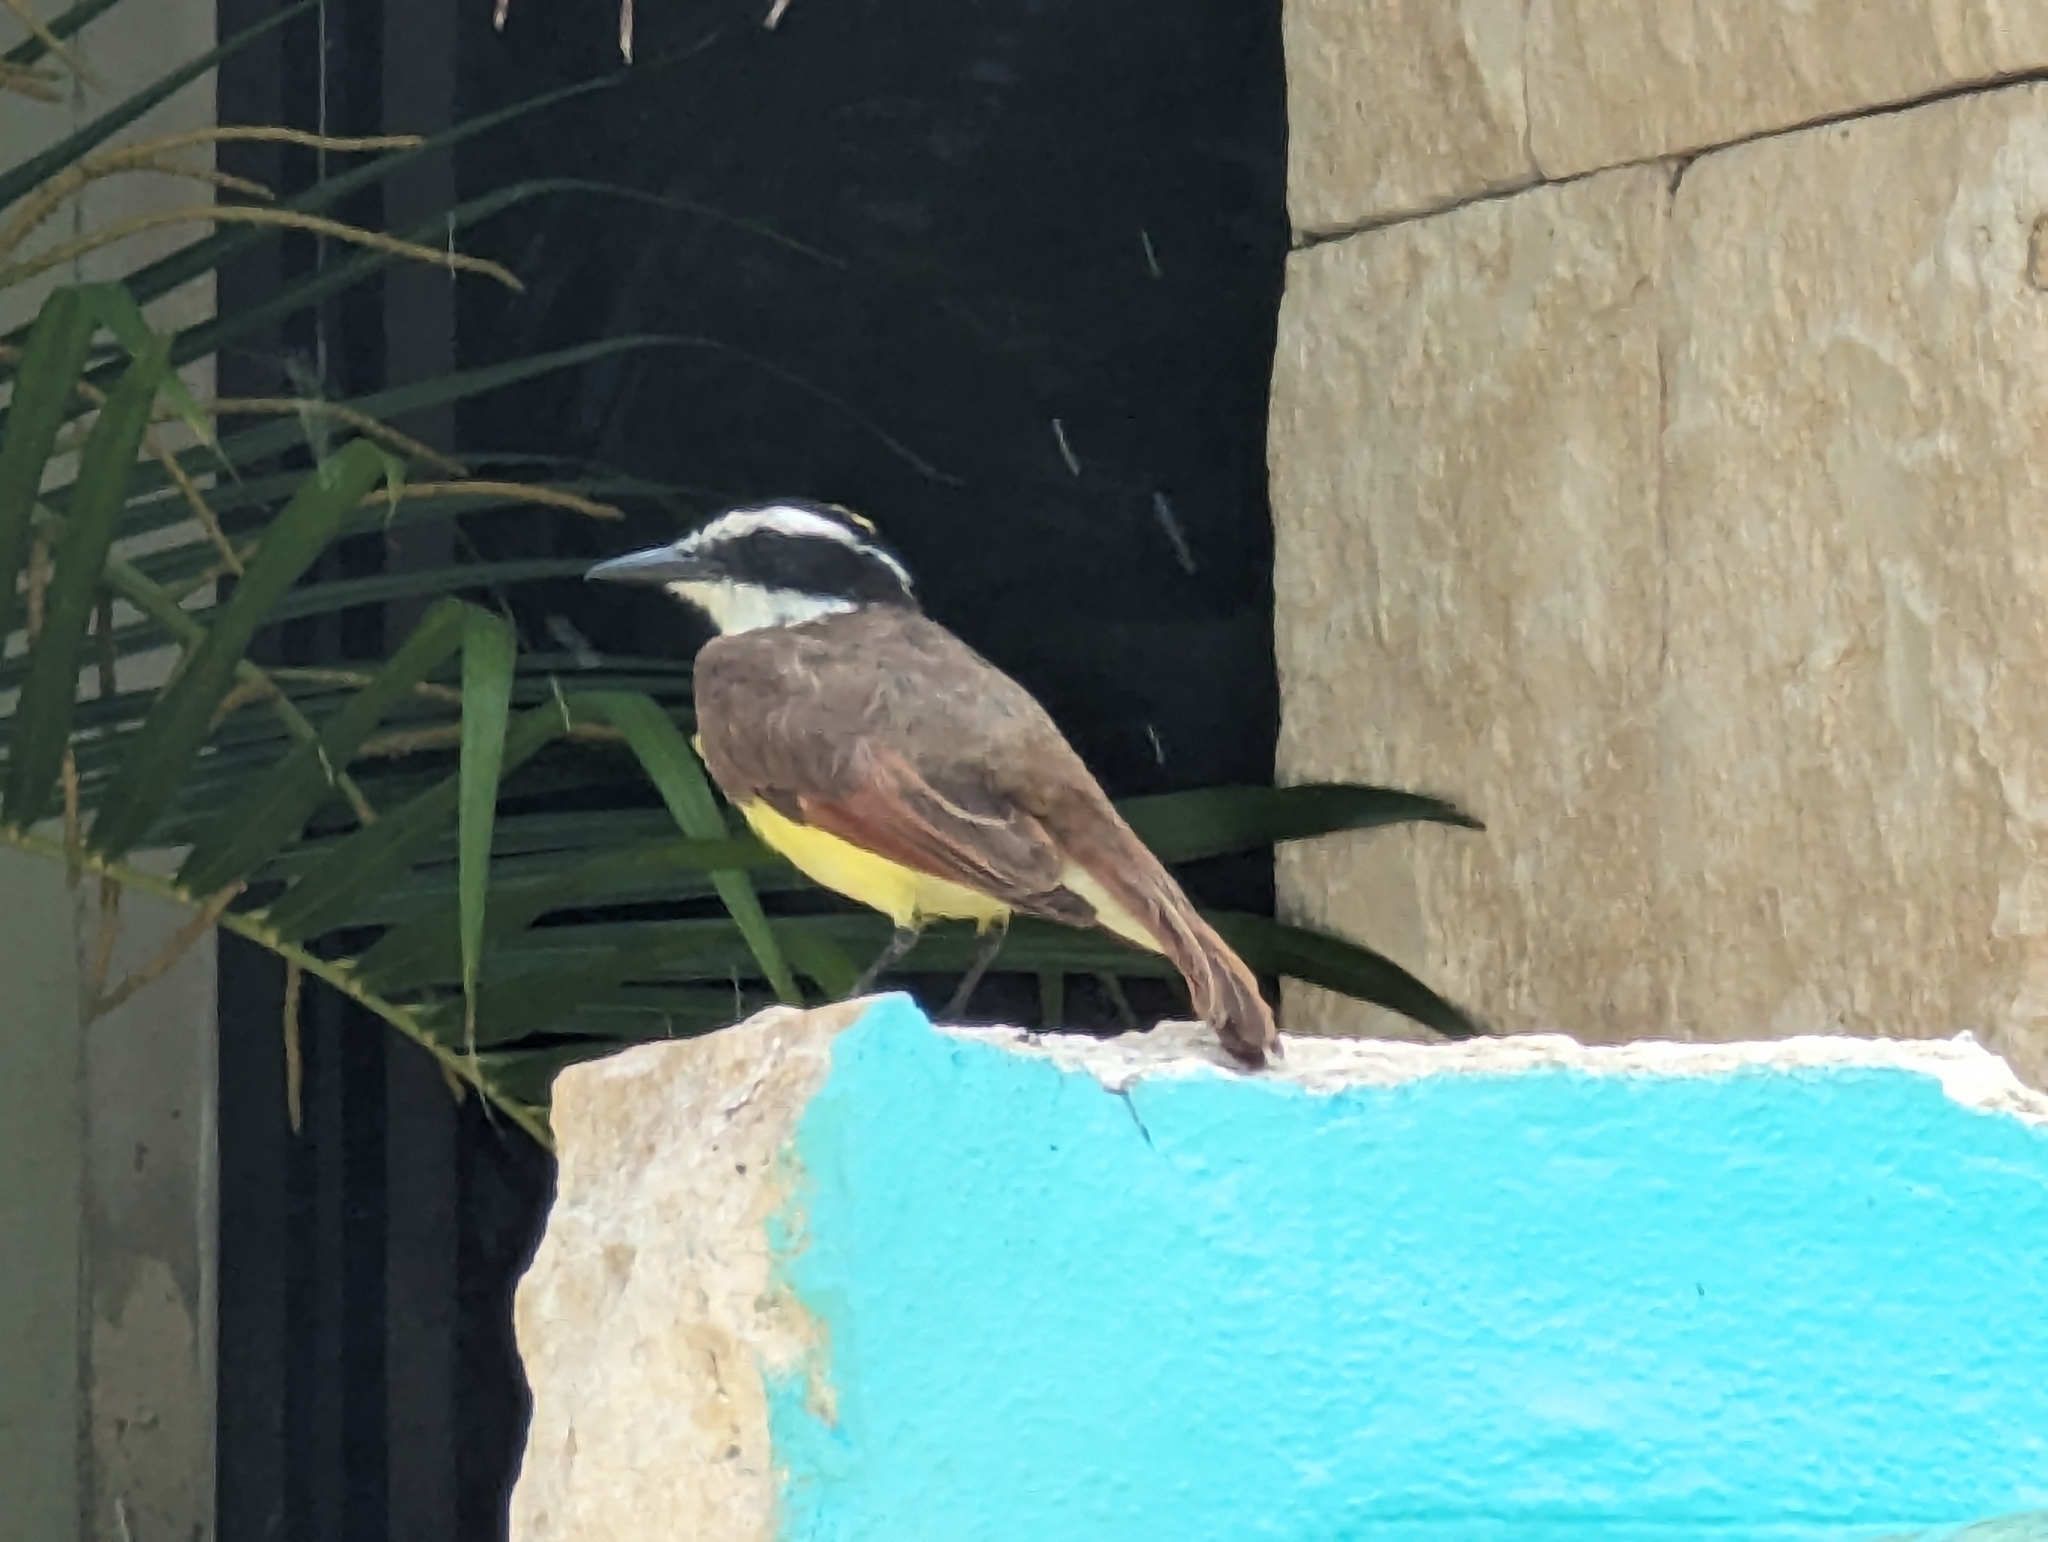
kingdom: Animalia
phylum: Chordata
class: Aves
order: Passeriformes
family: Tyrannidae
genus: Pitangus
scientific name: Pitangus sulphuratus
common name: Great kiskadee
